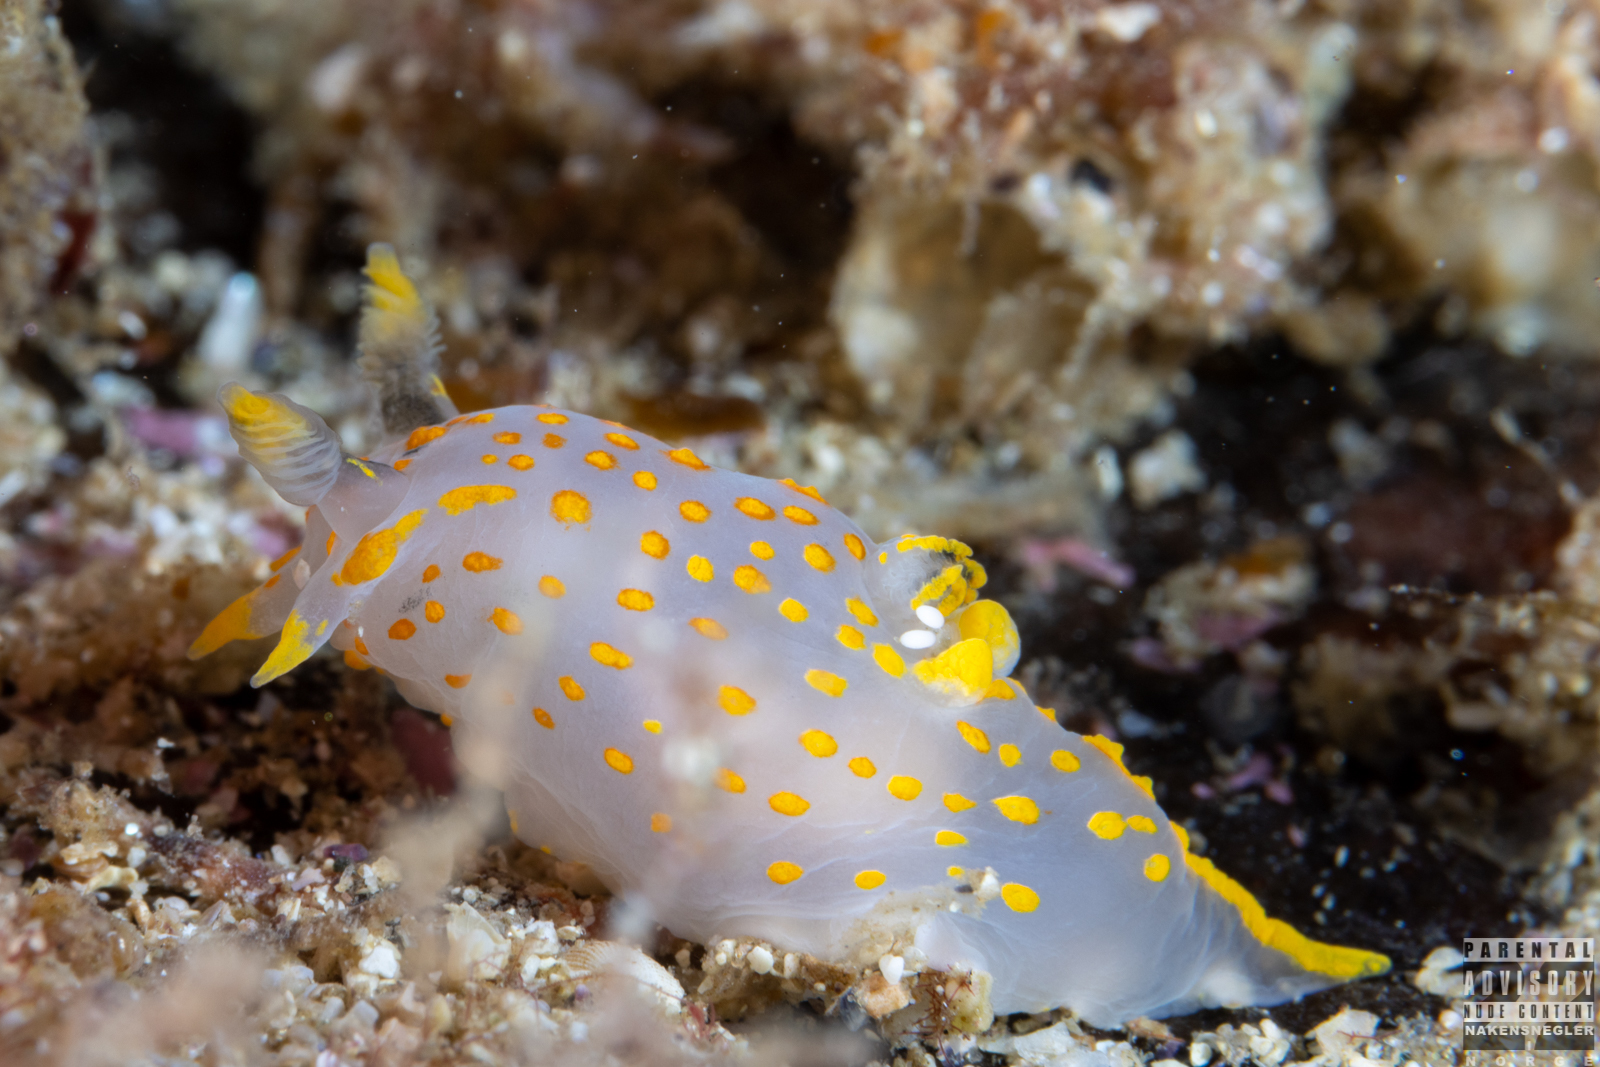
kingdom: Animalia
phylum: Mollusca
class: Gastropoda
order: Nudibranchia
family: Polyceridae
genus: Polycera
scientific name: Polycera quadrilineata
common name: Four-striped polycera
